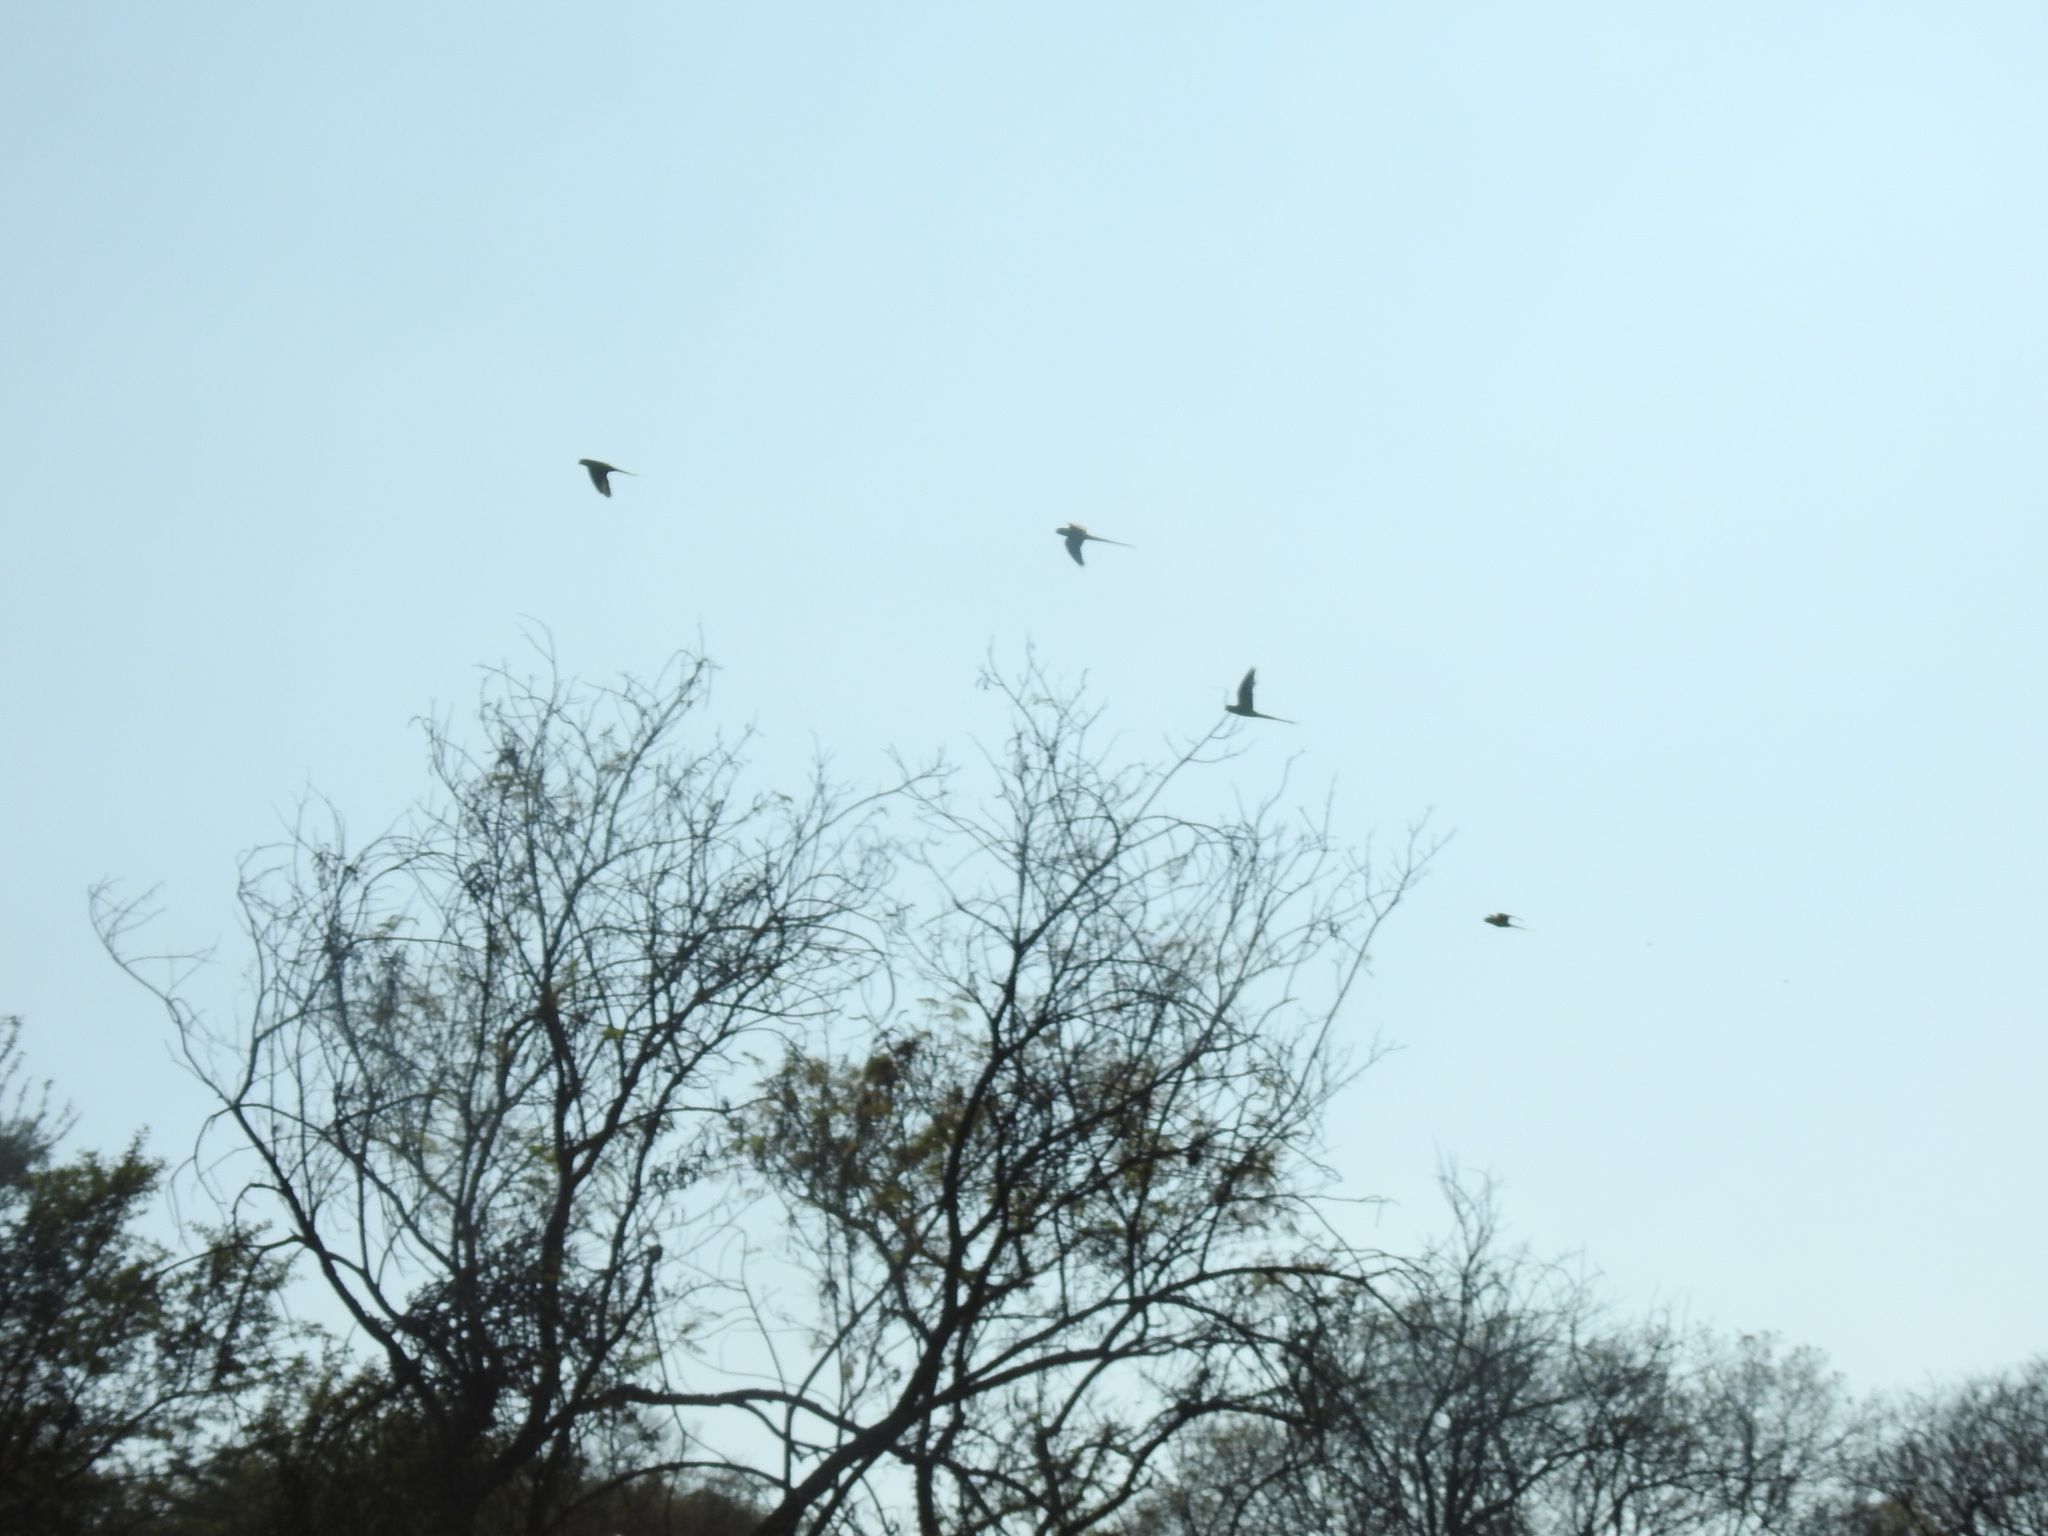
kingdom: Animalia
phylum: Chordata
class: Aves
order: Psittaciformes
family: Psittacidae
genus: Psittacula
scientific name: Psittacula krameri
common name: Rose-ringed parakeet
